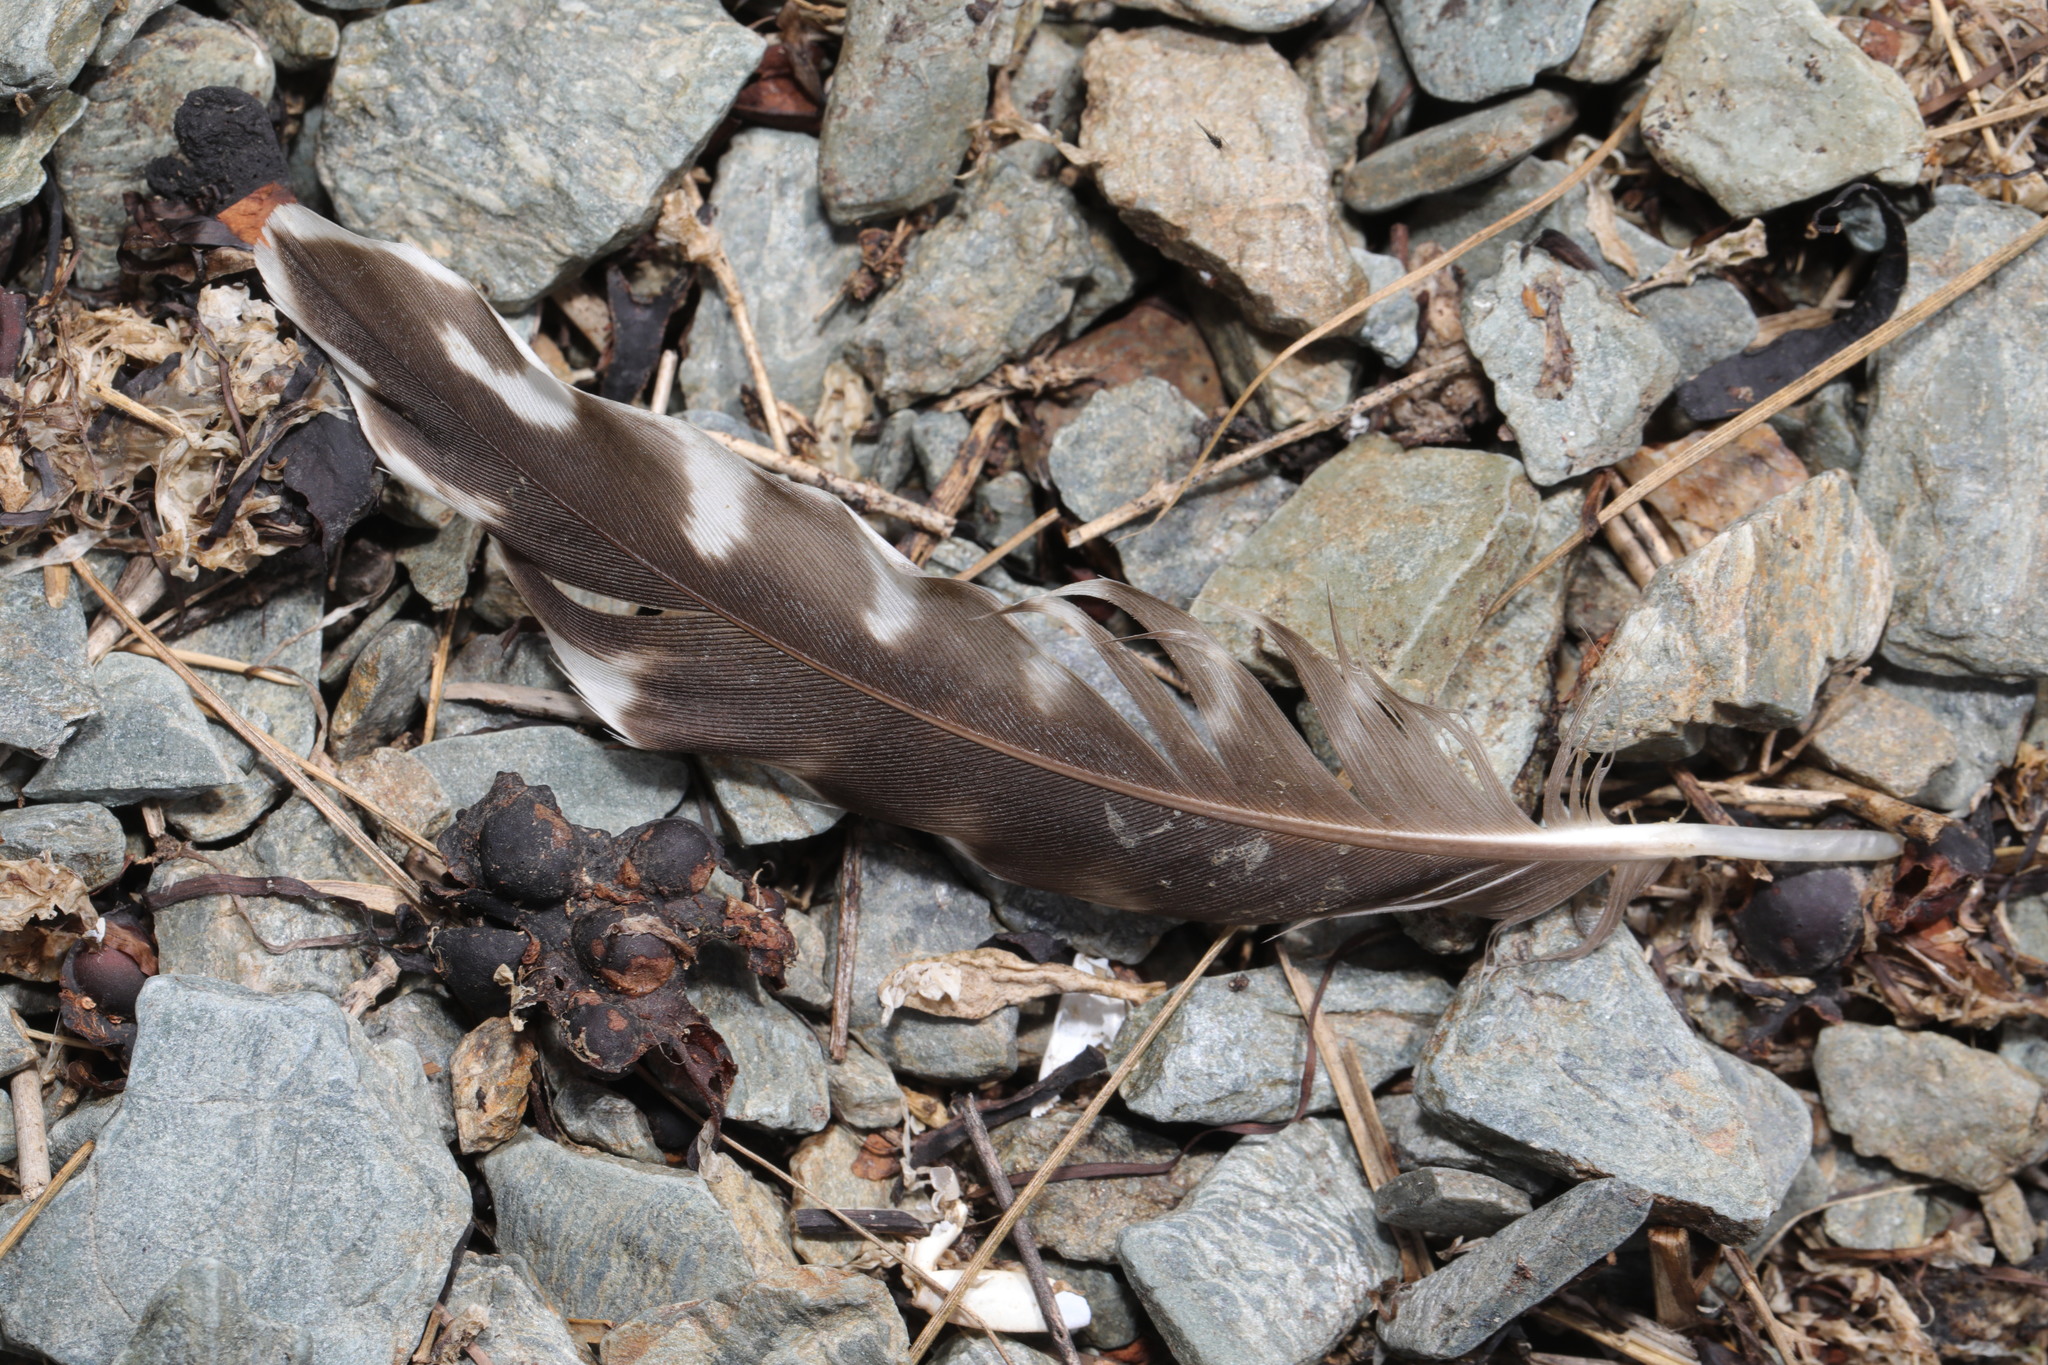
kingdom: Animalia
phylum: Chordata
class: Aves
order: Charadriiformes
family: Scolopacidae
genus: Numenius
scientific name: Numenius arquata
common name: Eurasian curlew
